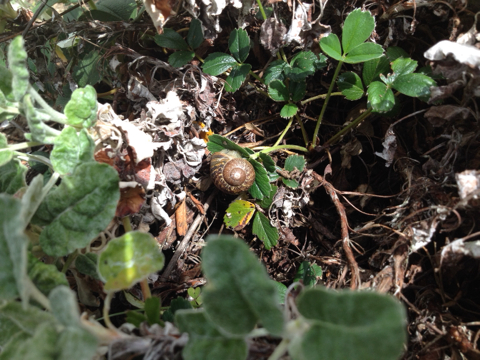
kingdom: Animalia
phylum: Mollusca
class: Gastropoda
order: Stylommatophora
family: Helicidae
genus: Cornu
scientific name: Cornu aspersum
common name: Brown garden snail
